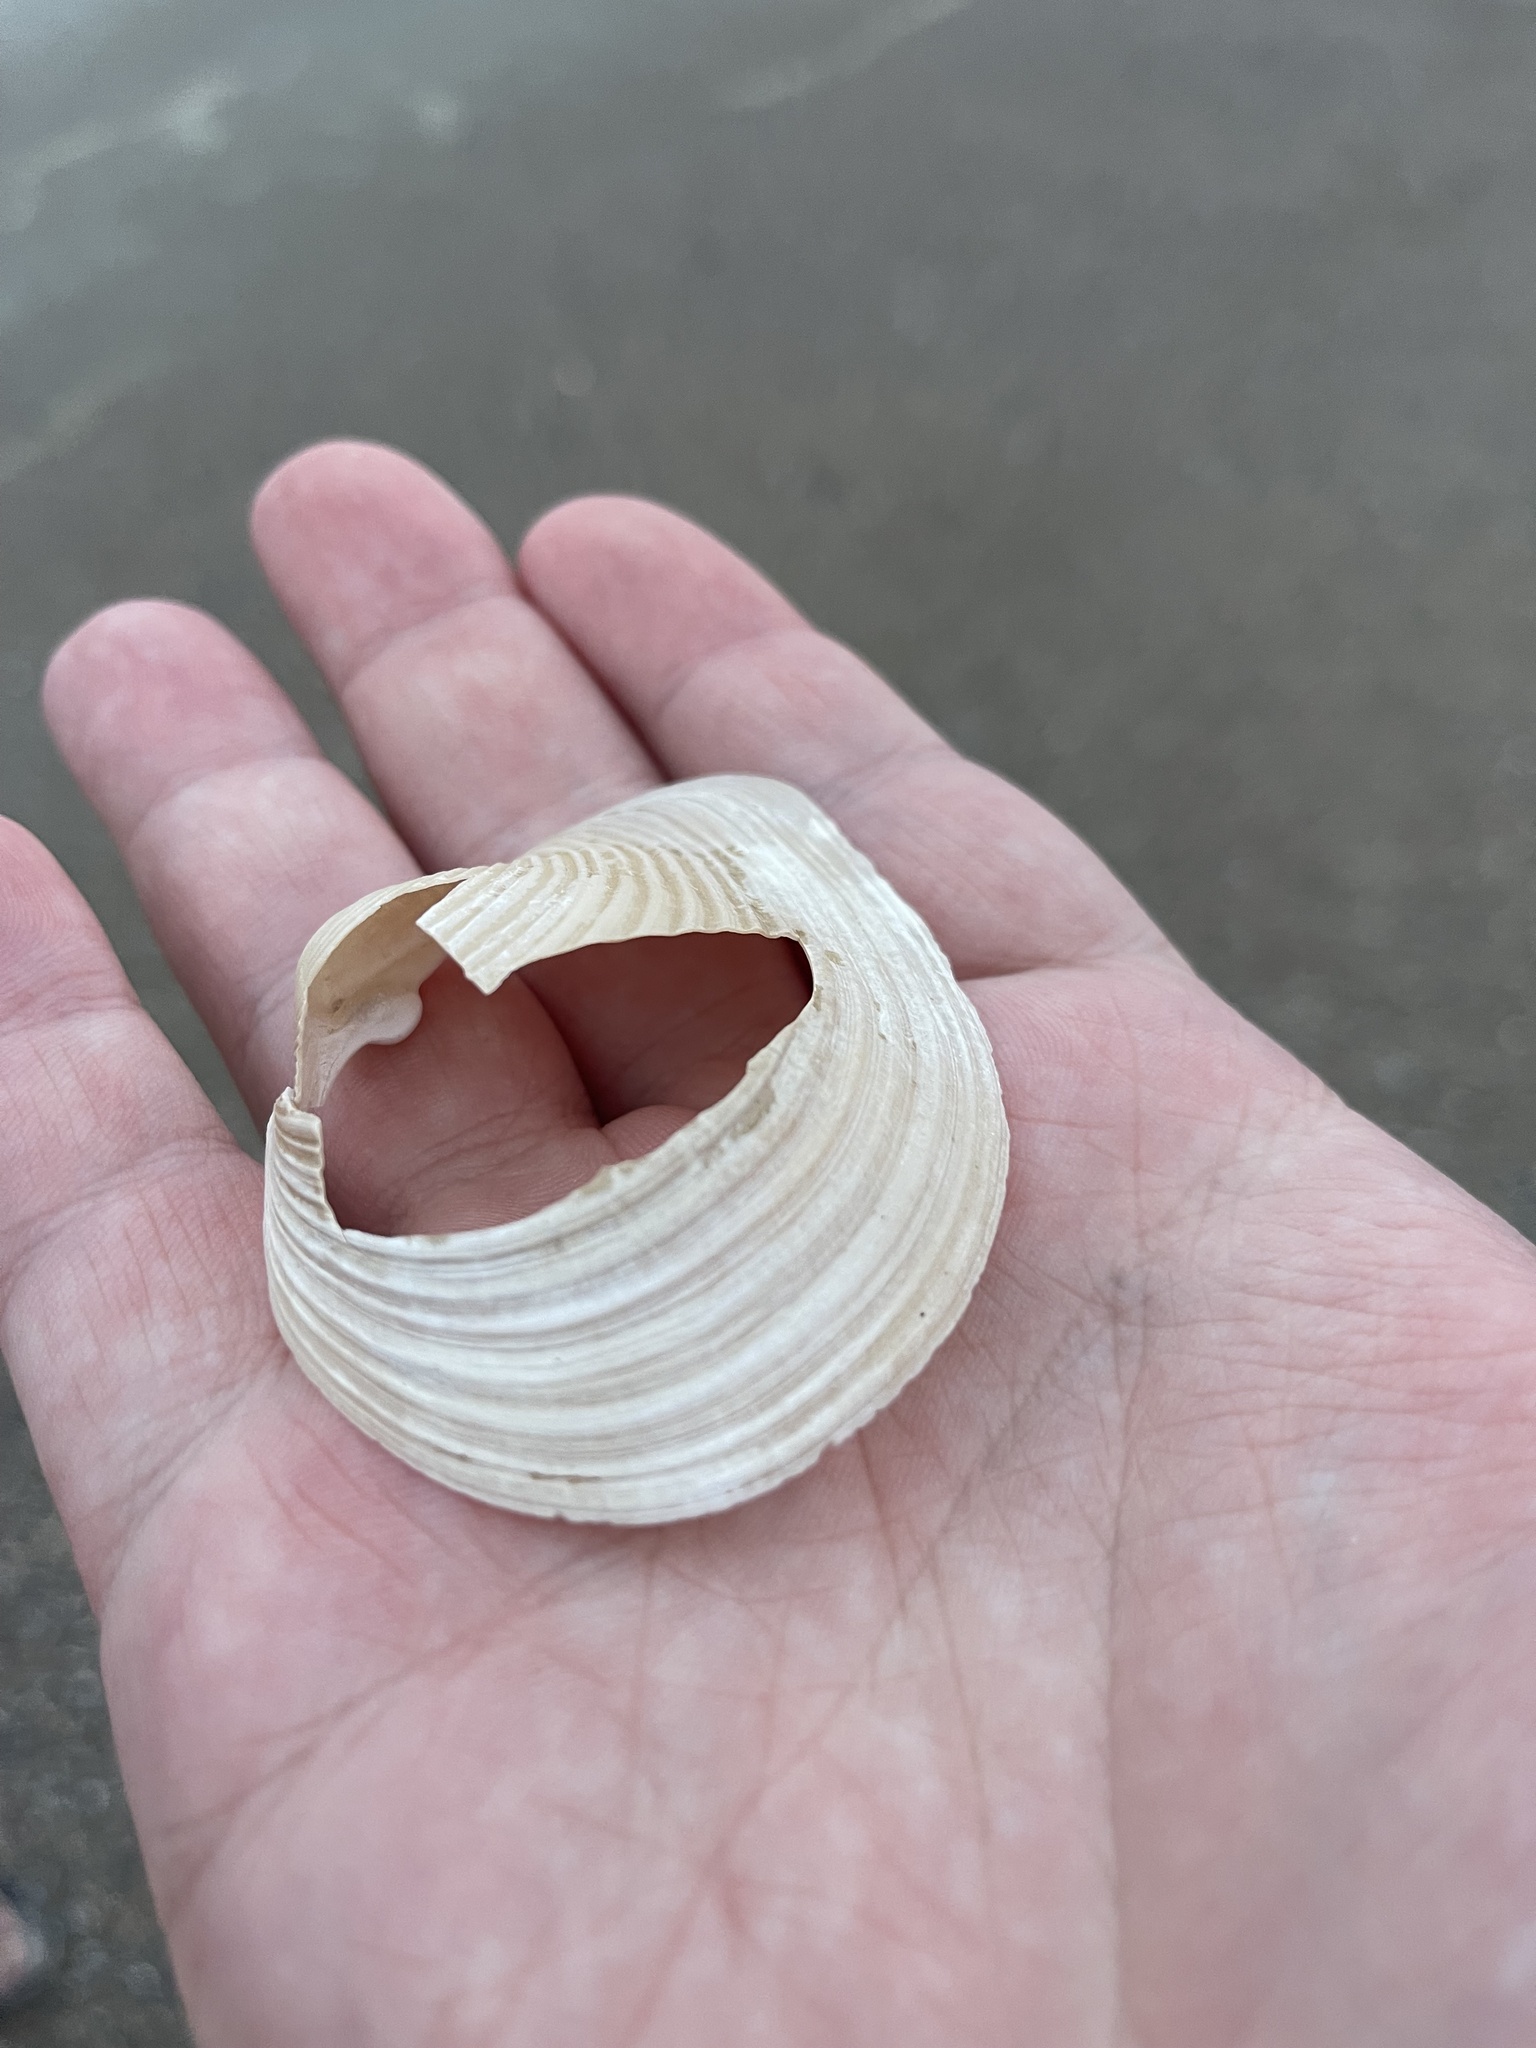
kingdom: Animalia
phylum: Mollusca
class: Bivalvia
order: Venerida
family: Anatinellidae
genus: Raeta
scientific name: Raeta plicatella
